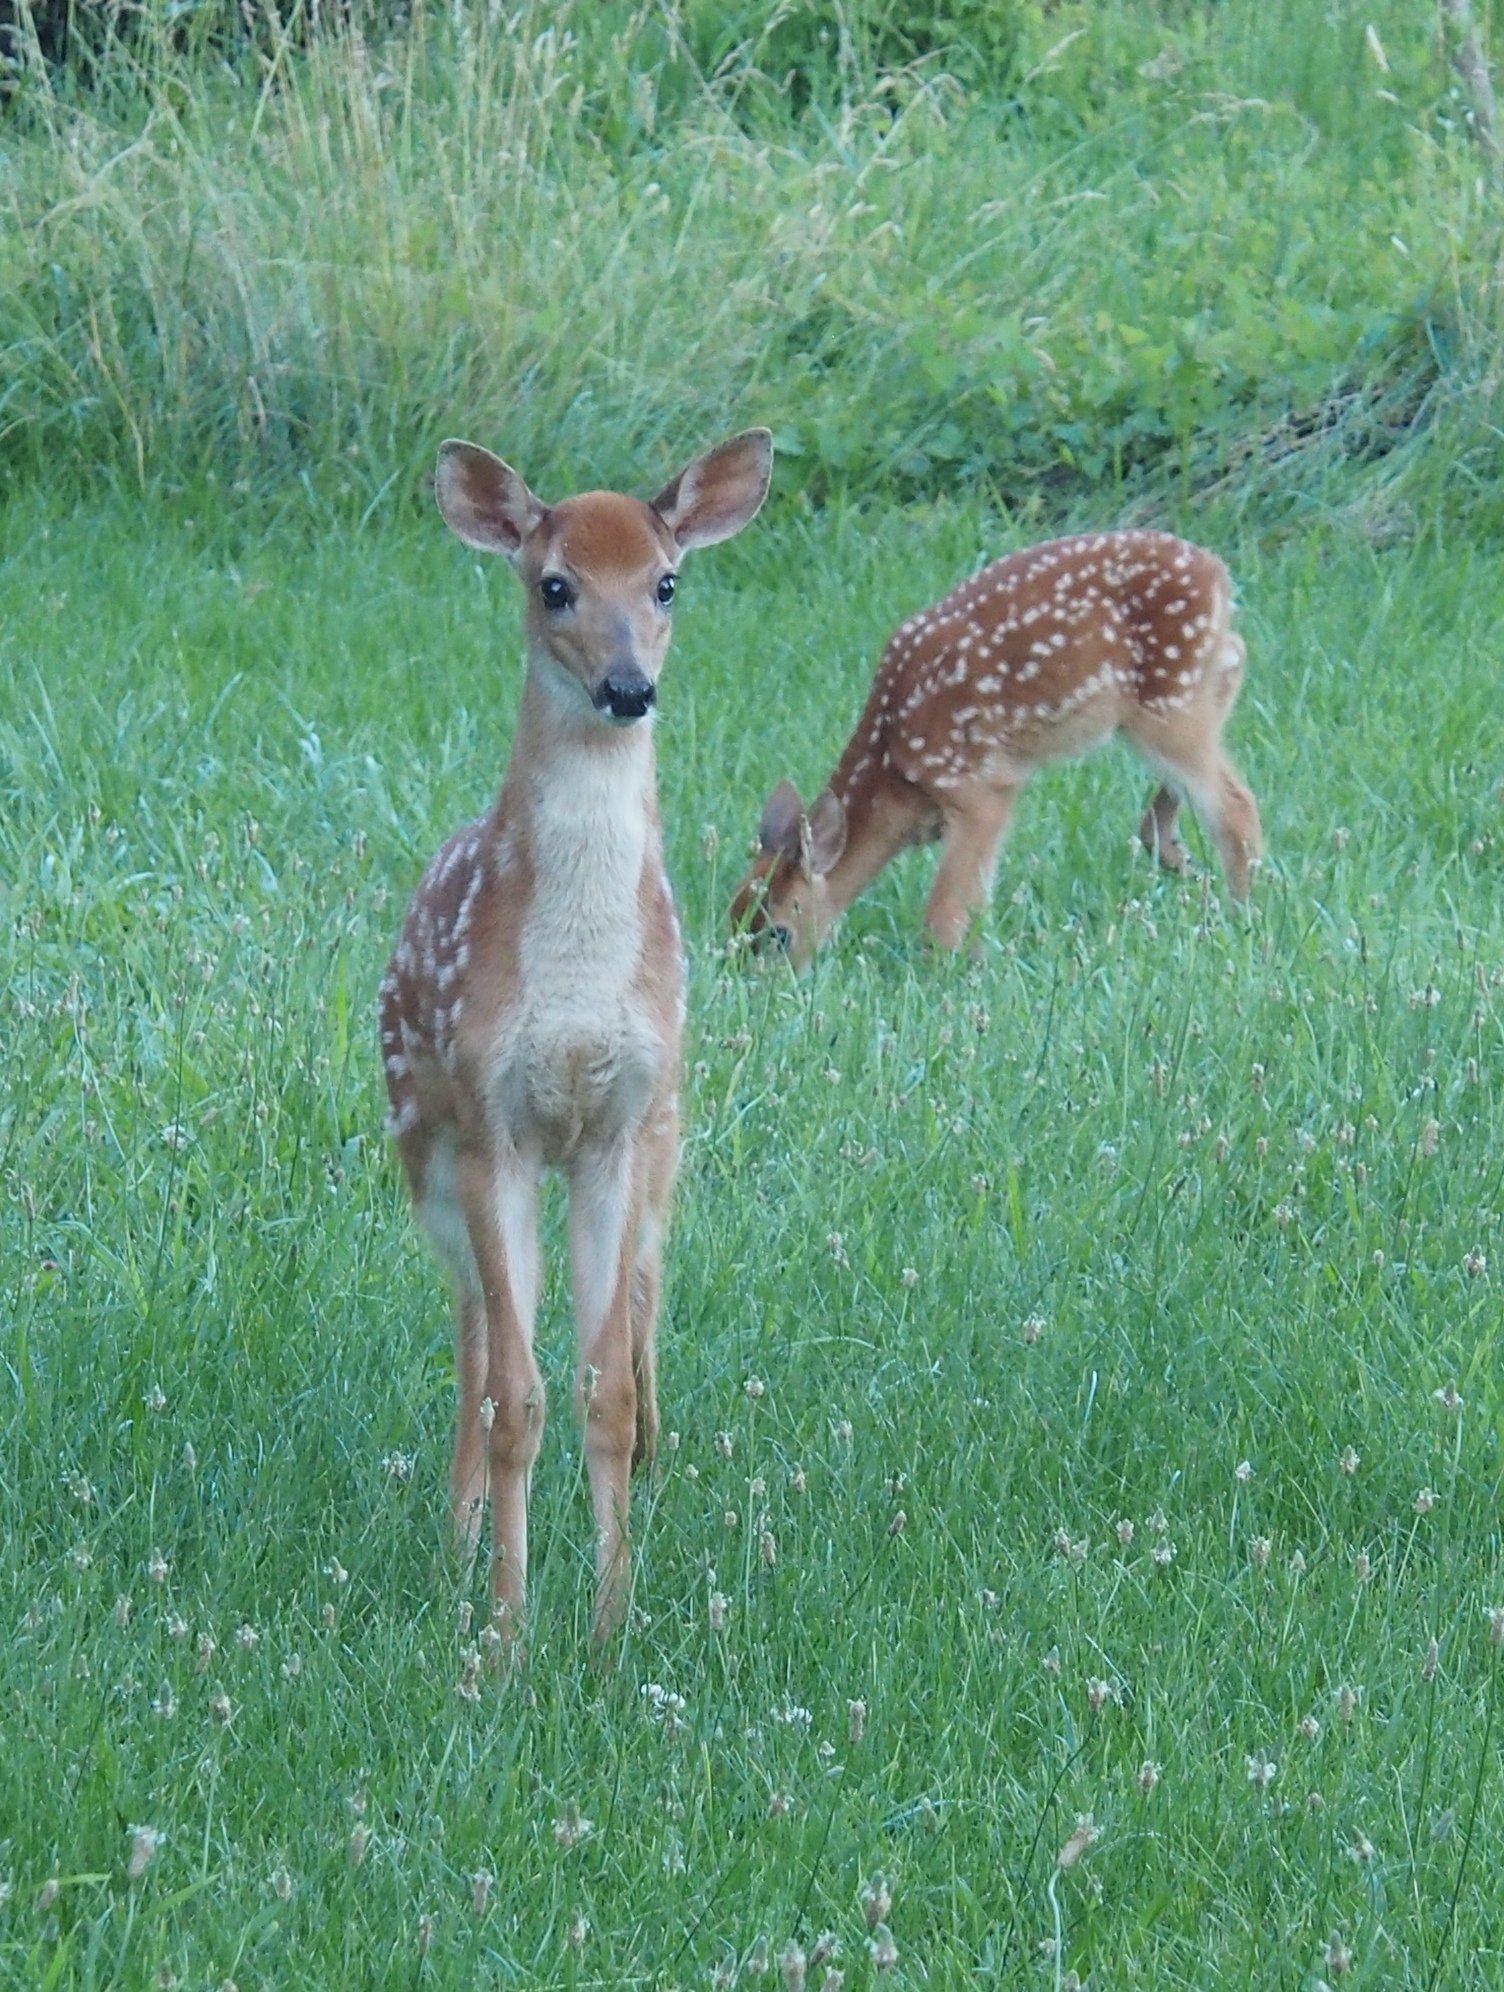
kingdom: Animalia
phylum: Chordata
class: Mammalia
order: Artiodactyla
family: Cervidae
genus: Odocoileus
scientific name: Odocoileus virginianus
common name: White-tailed deer
